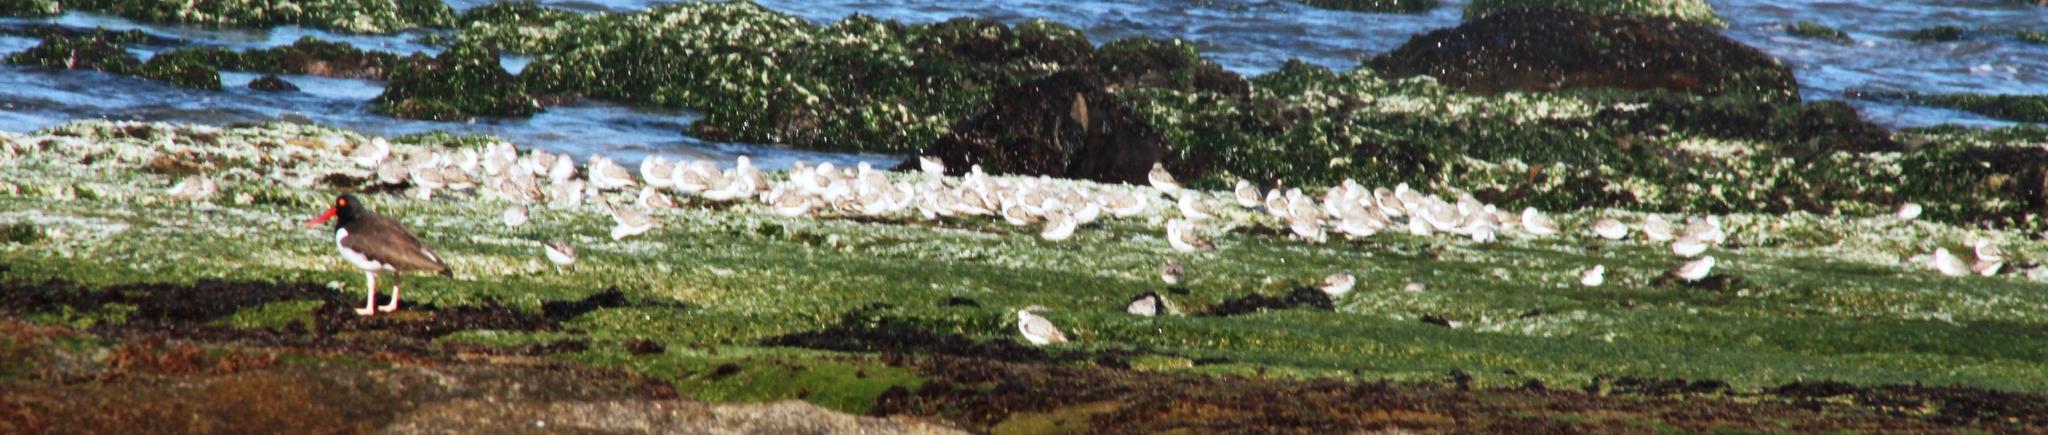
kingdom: Animalia
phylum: Chordata
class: Aves
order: Charadriiformes
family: Scolopacidae
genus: Calidris
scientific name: Calidris alba
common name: Sanderling
